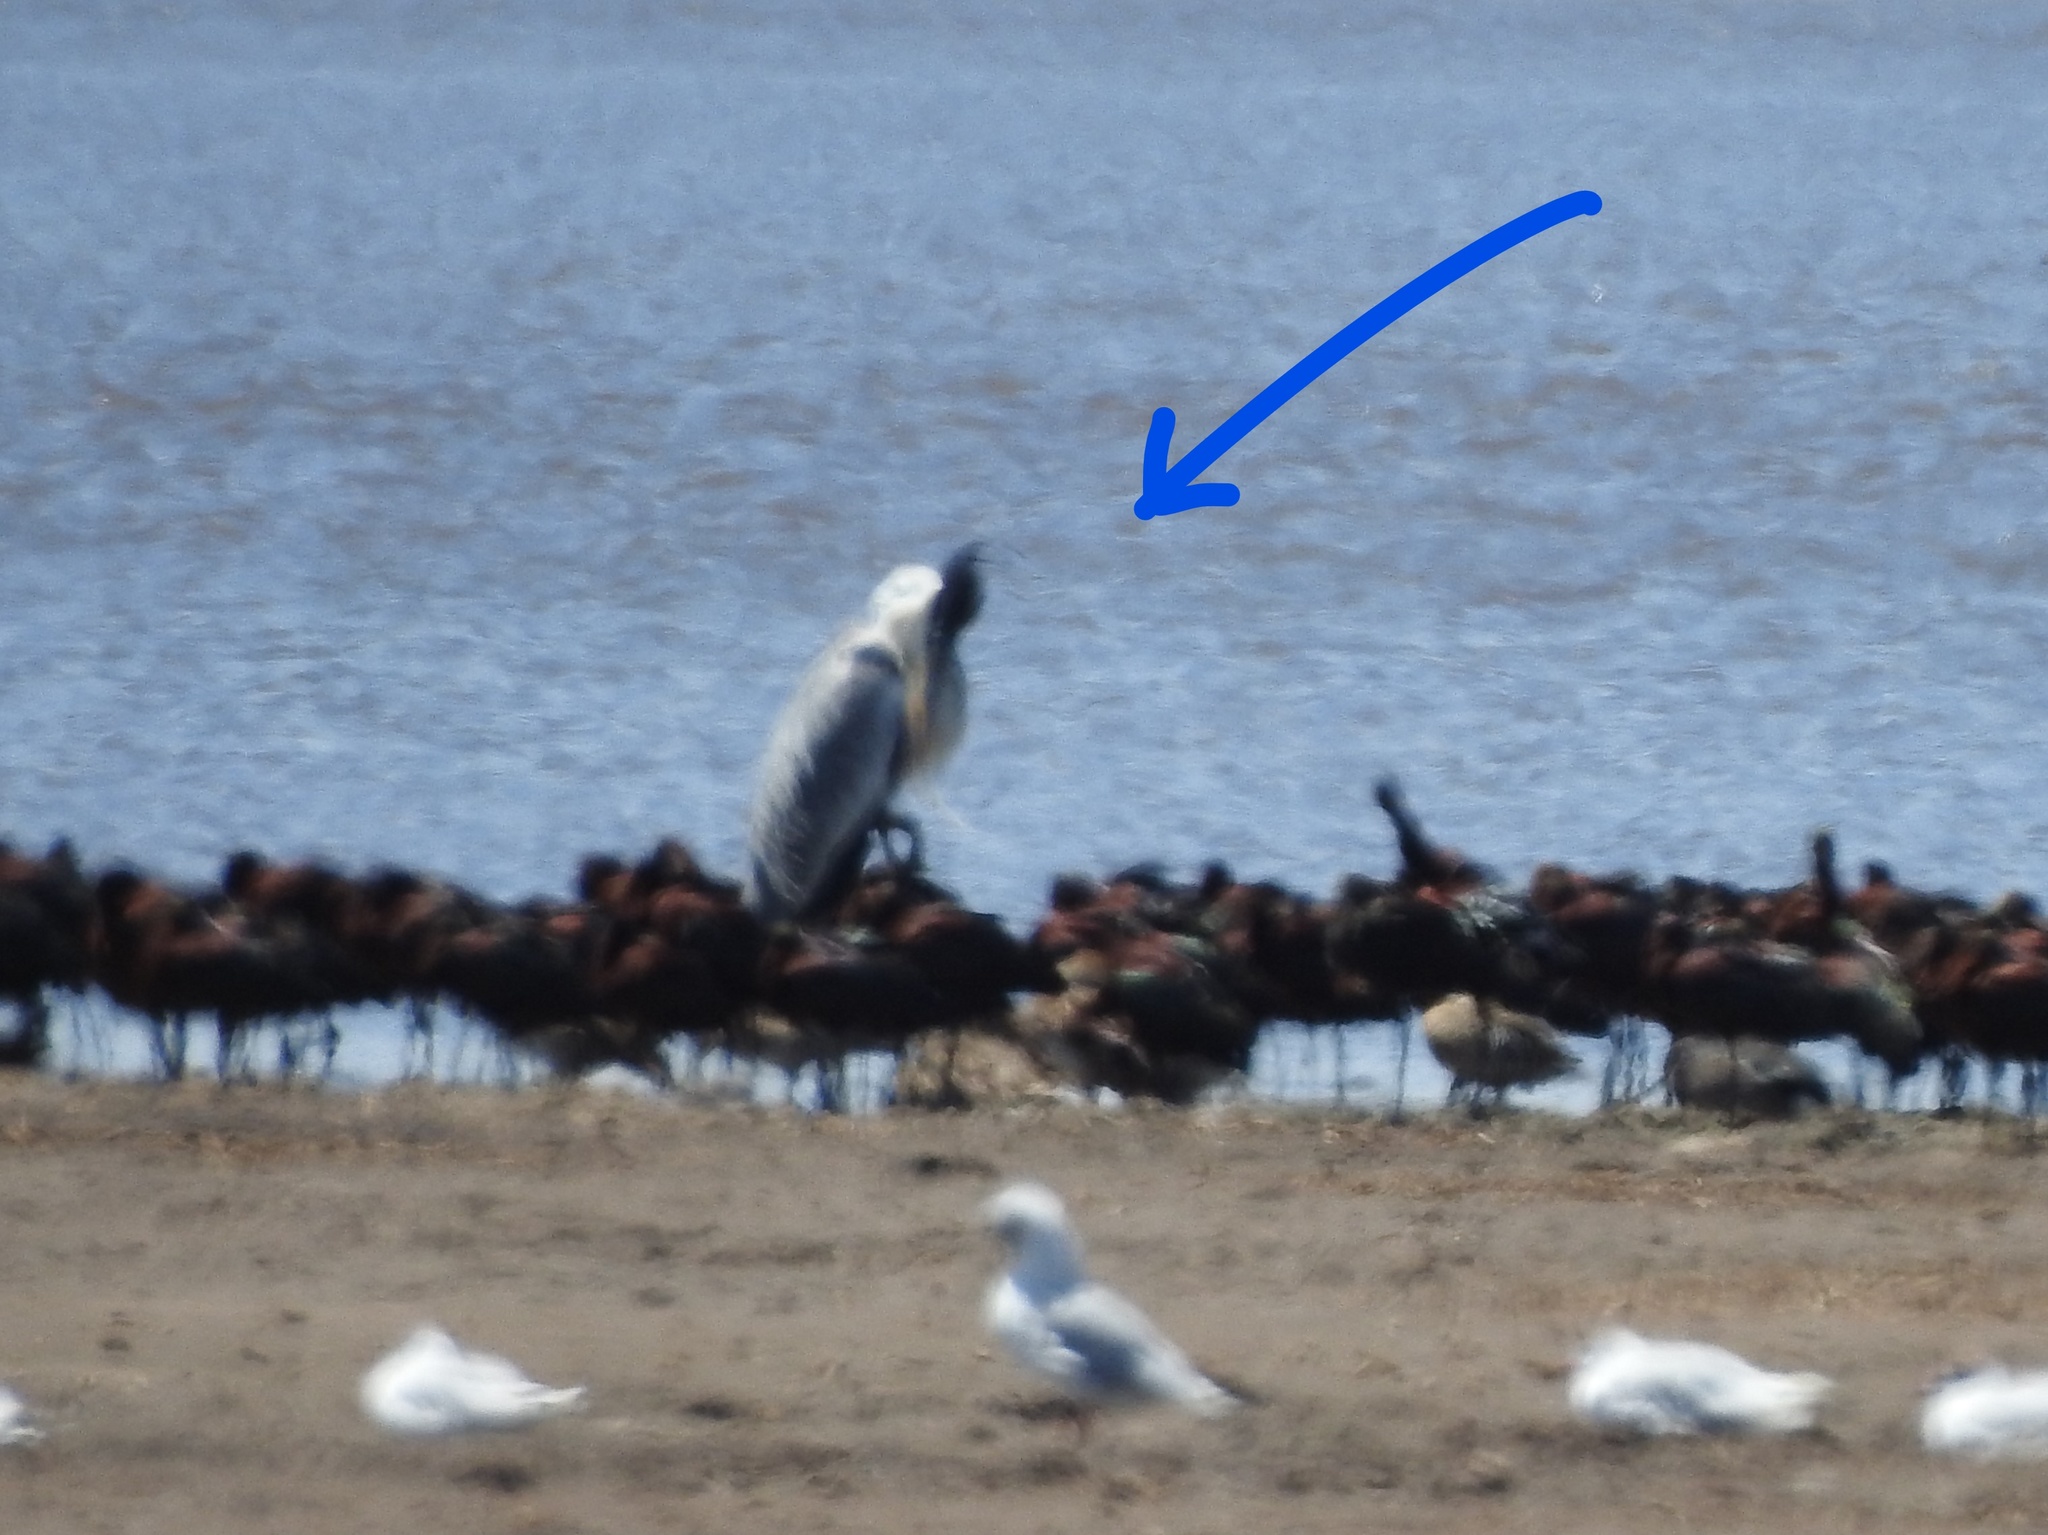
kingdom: Animalia
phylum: Chordata
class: Aves
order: Pelecaniformes
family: Ardeidae
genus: Ardea
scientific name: Ardea cocoi
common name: Cocoi heron
